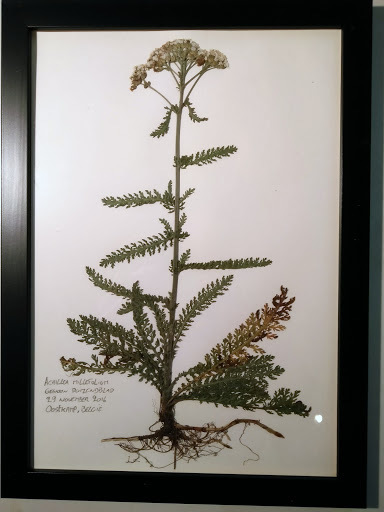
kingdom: Plantae
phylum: Tracheophyta
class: Magnoliopsida
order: Asterales
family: Asteraceae
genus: Achillea
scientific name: Achillea millefolium
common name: Yarrow
